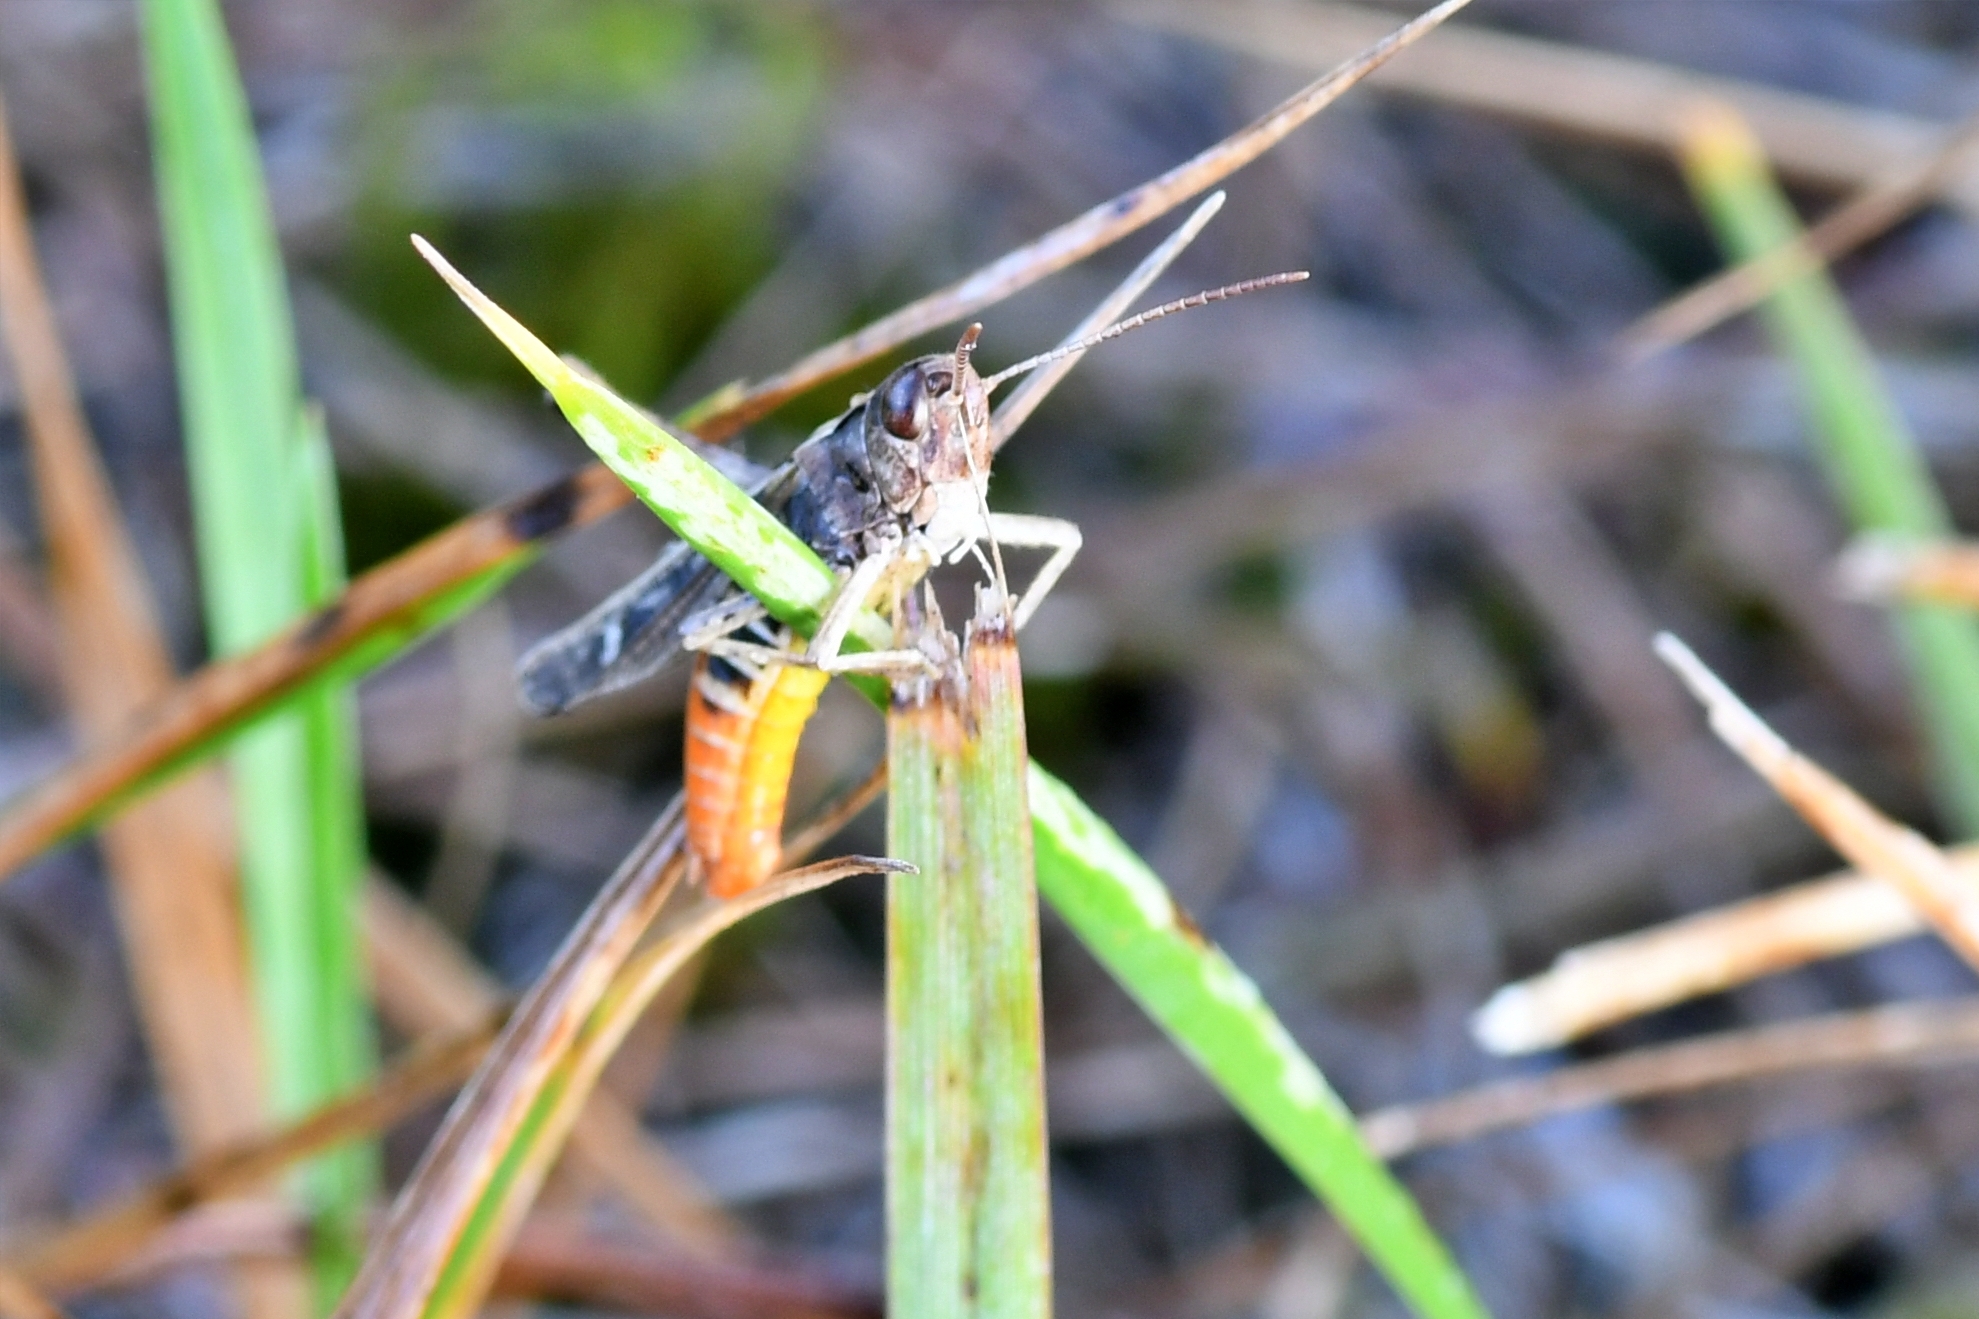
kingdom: Animalia
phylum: Arthropoda
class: Insecta
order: Orthoptera
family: Acrididae
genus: Chorthippus
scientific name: Chorthippus brunneus
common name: Field grasshopper
